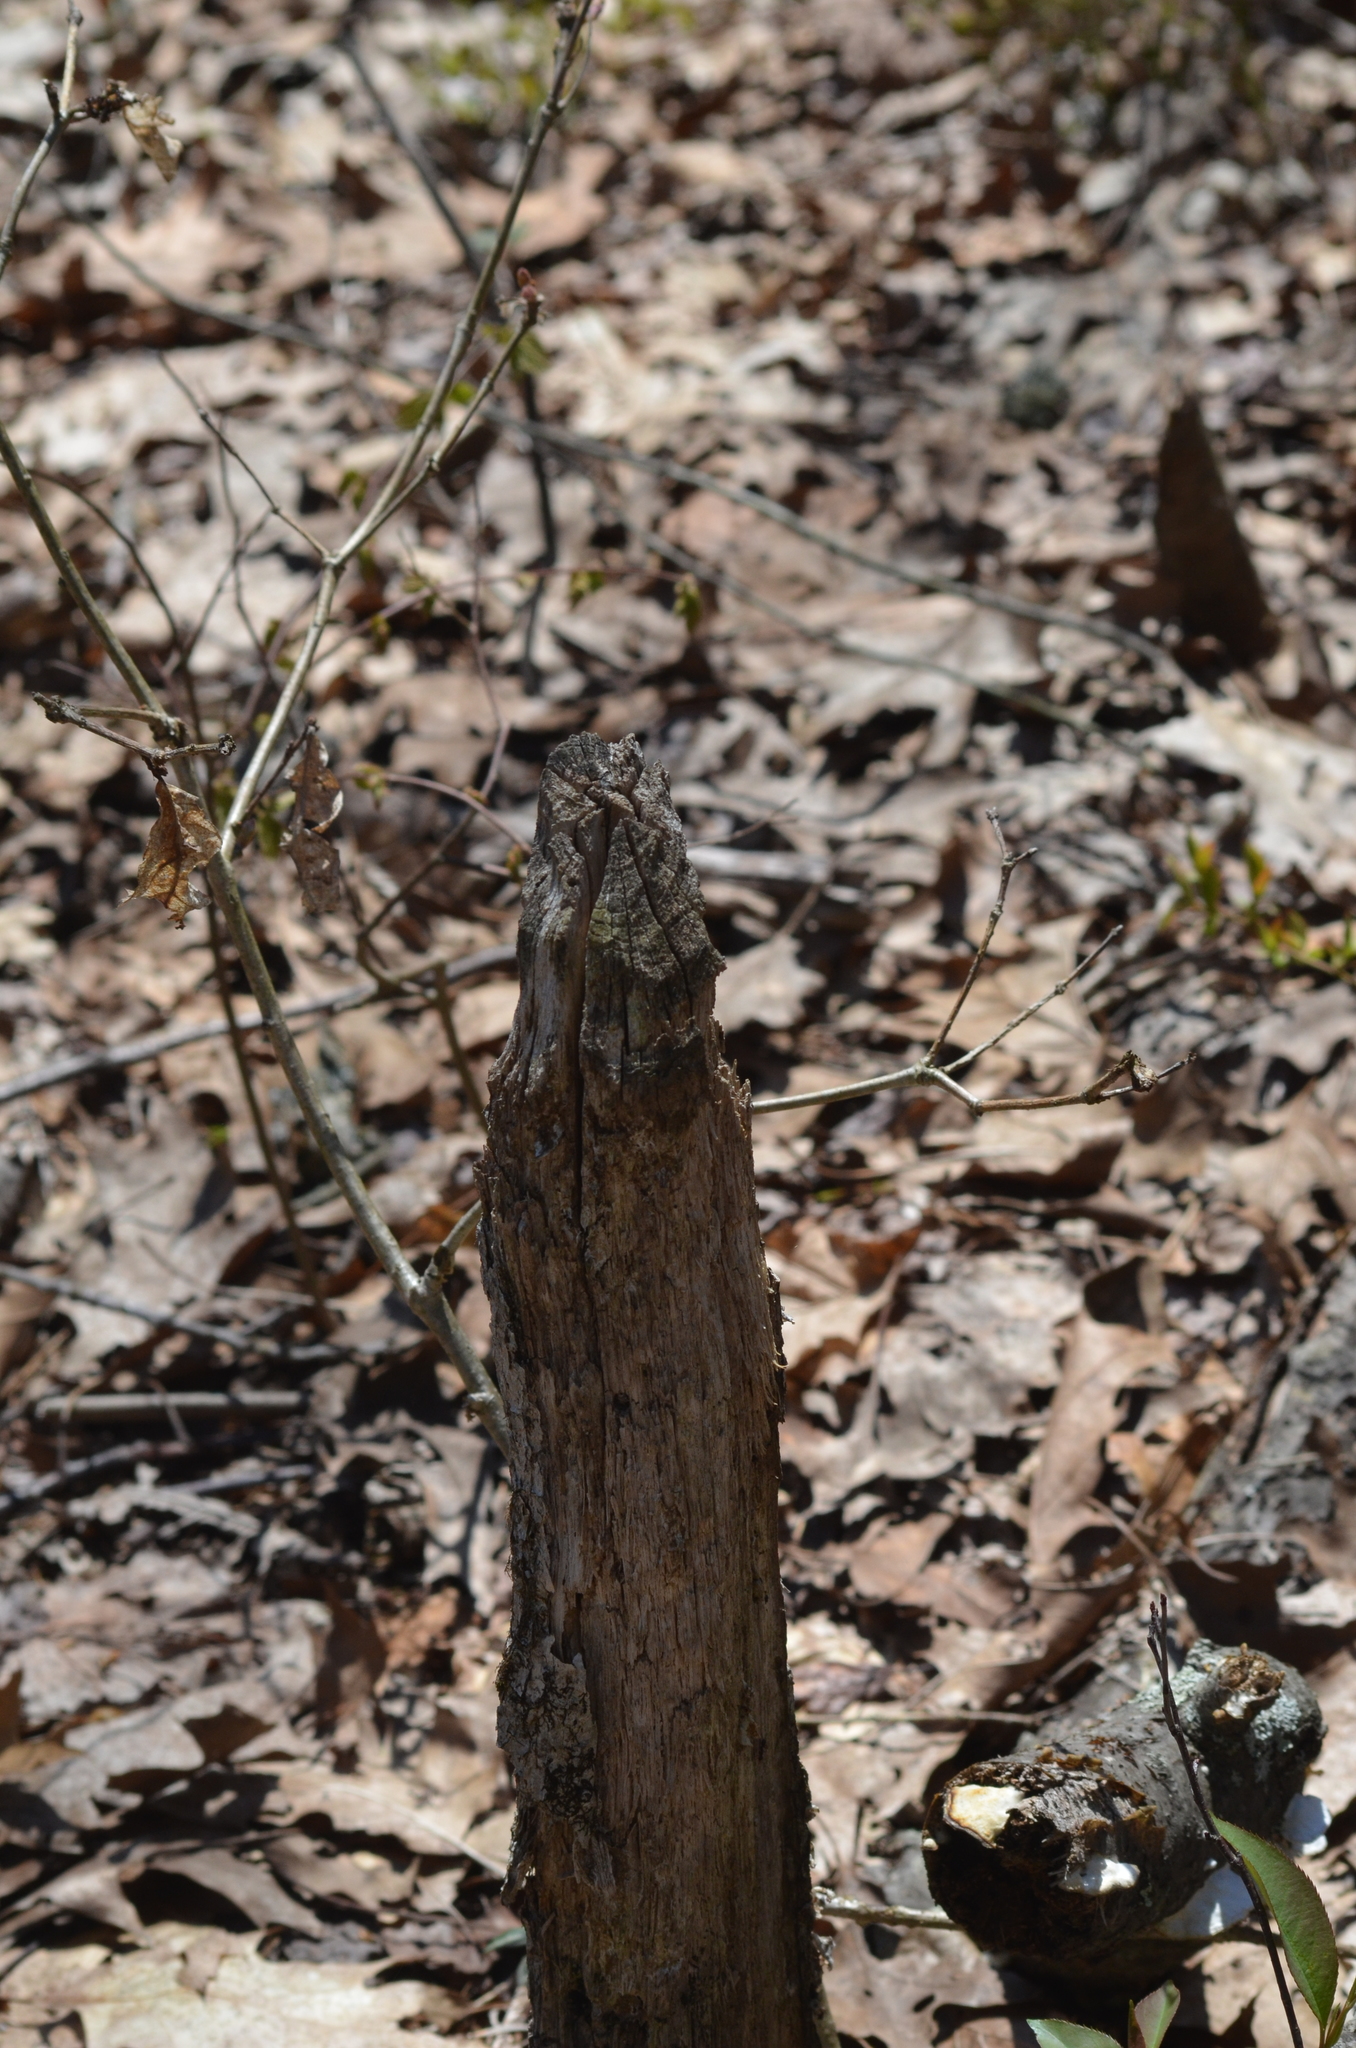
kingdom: Animalia
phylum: Chordata
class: Mammalia
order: Rodentia
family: Castoridae
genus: Castor
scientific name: Castor canadensis
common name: American beaver
